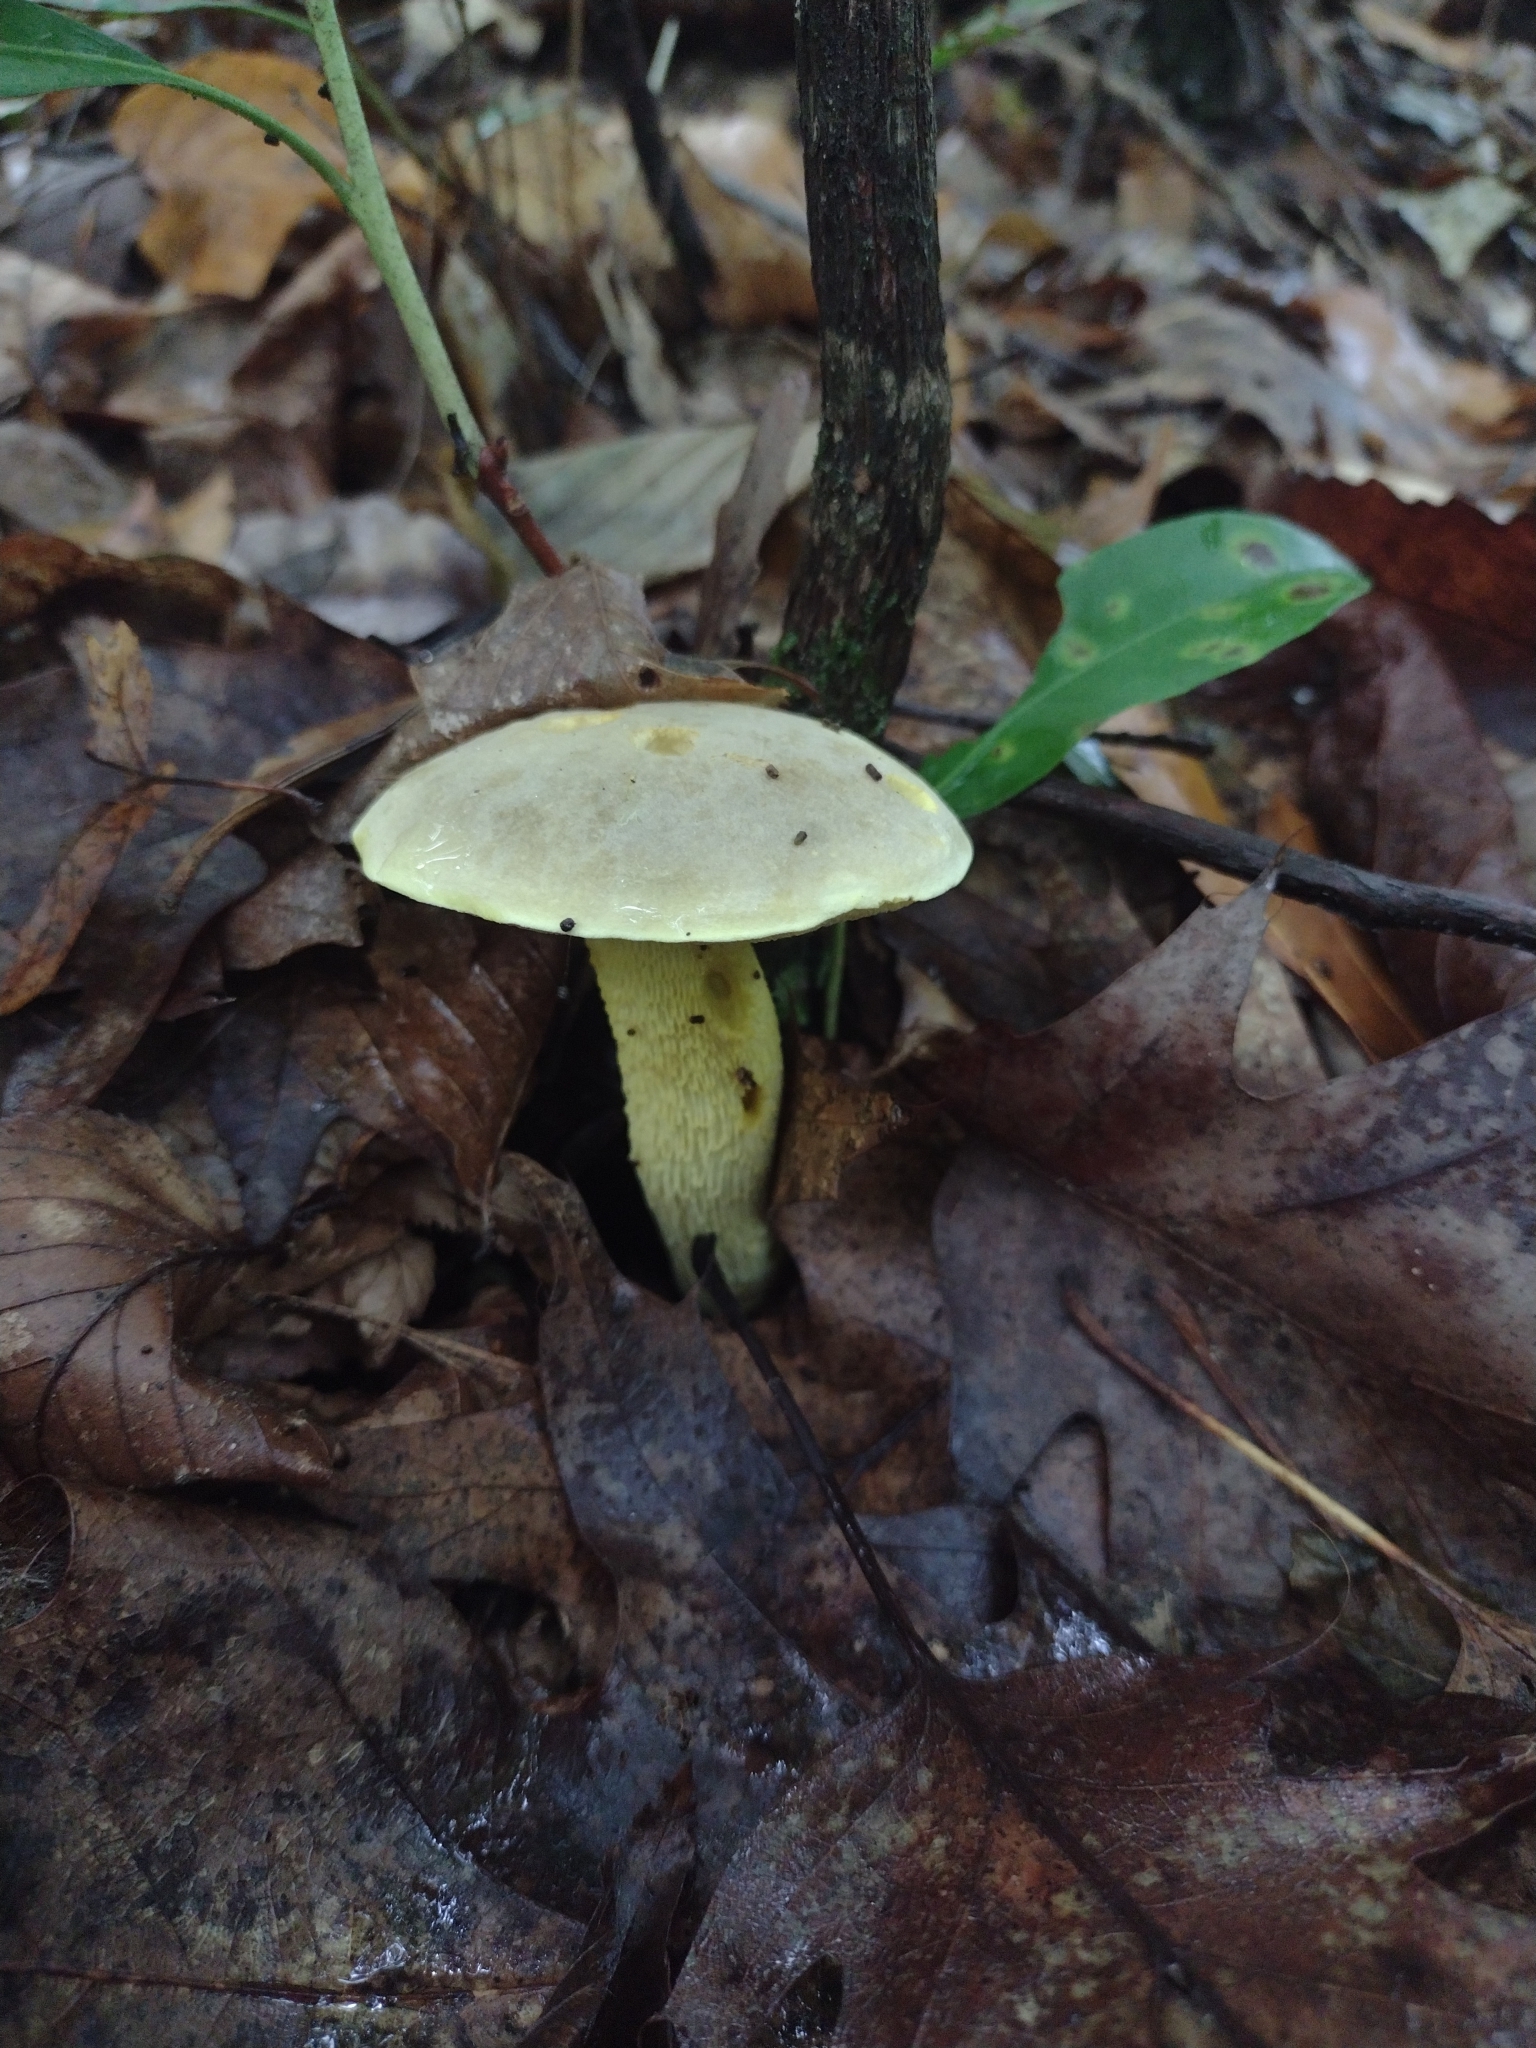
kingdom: Fungi
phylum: Basidiomycota
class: Agaricomycetes
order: Boletales
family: Boletaceae
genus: Retiboletus
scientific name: Retiboletus ornatipes
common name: Ornate-stalked bolete
